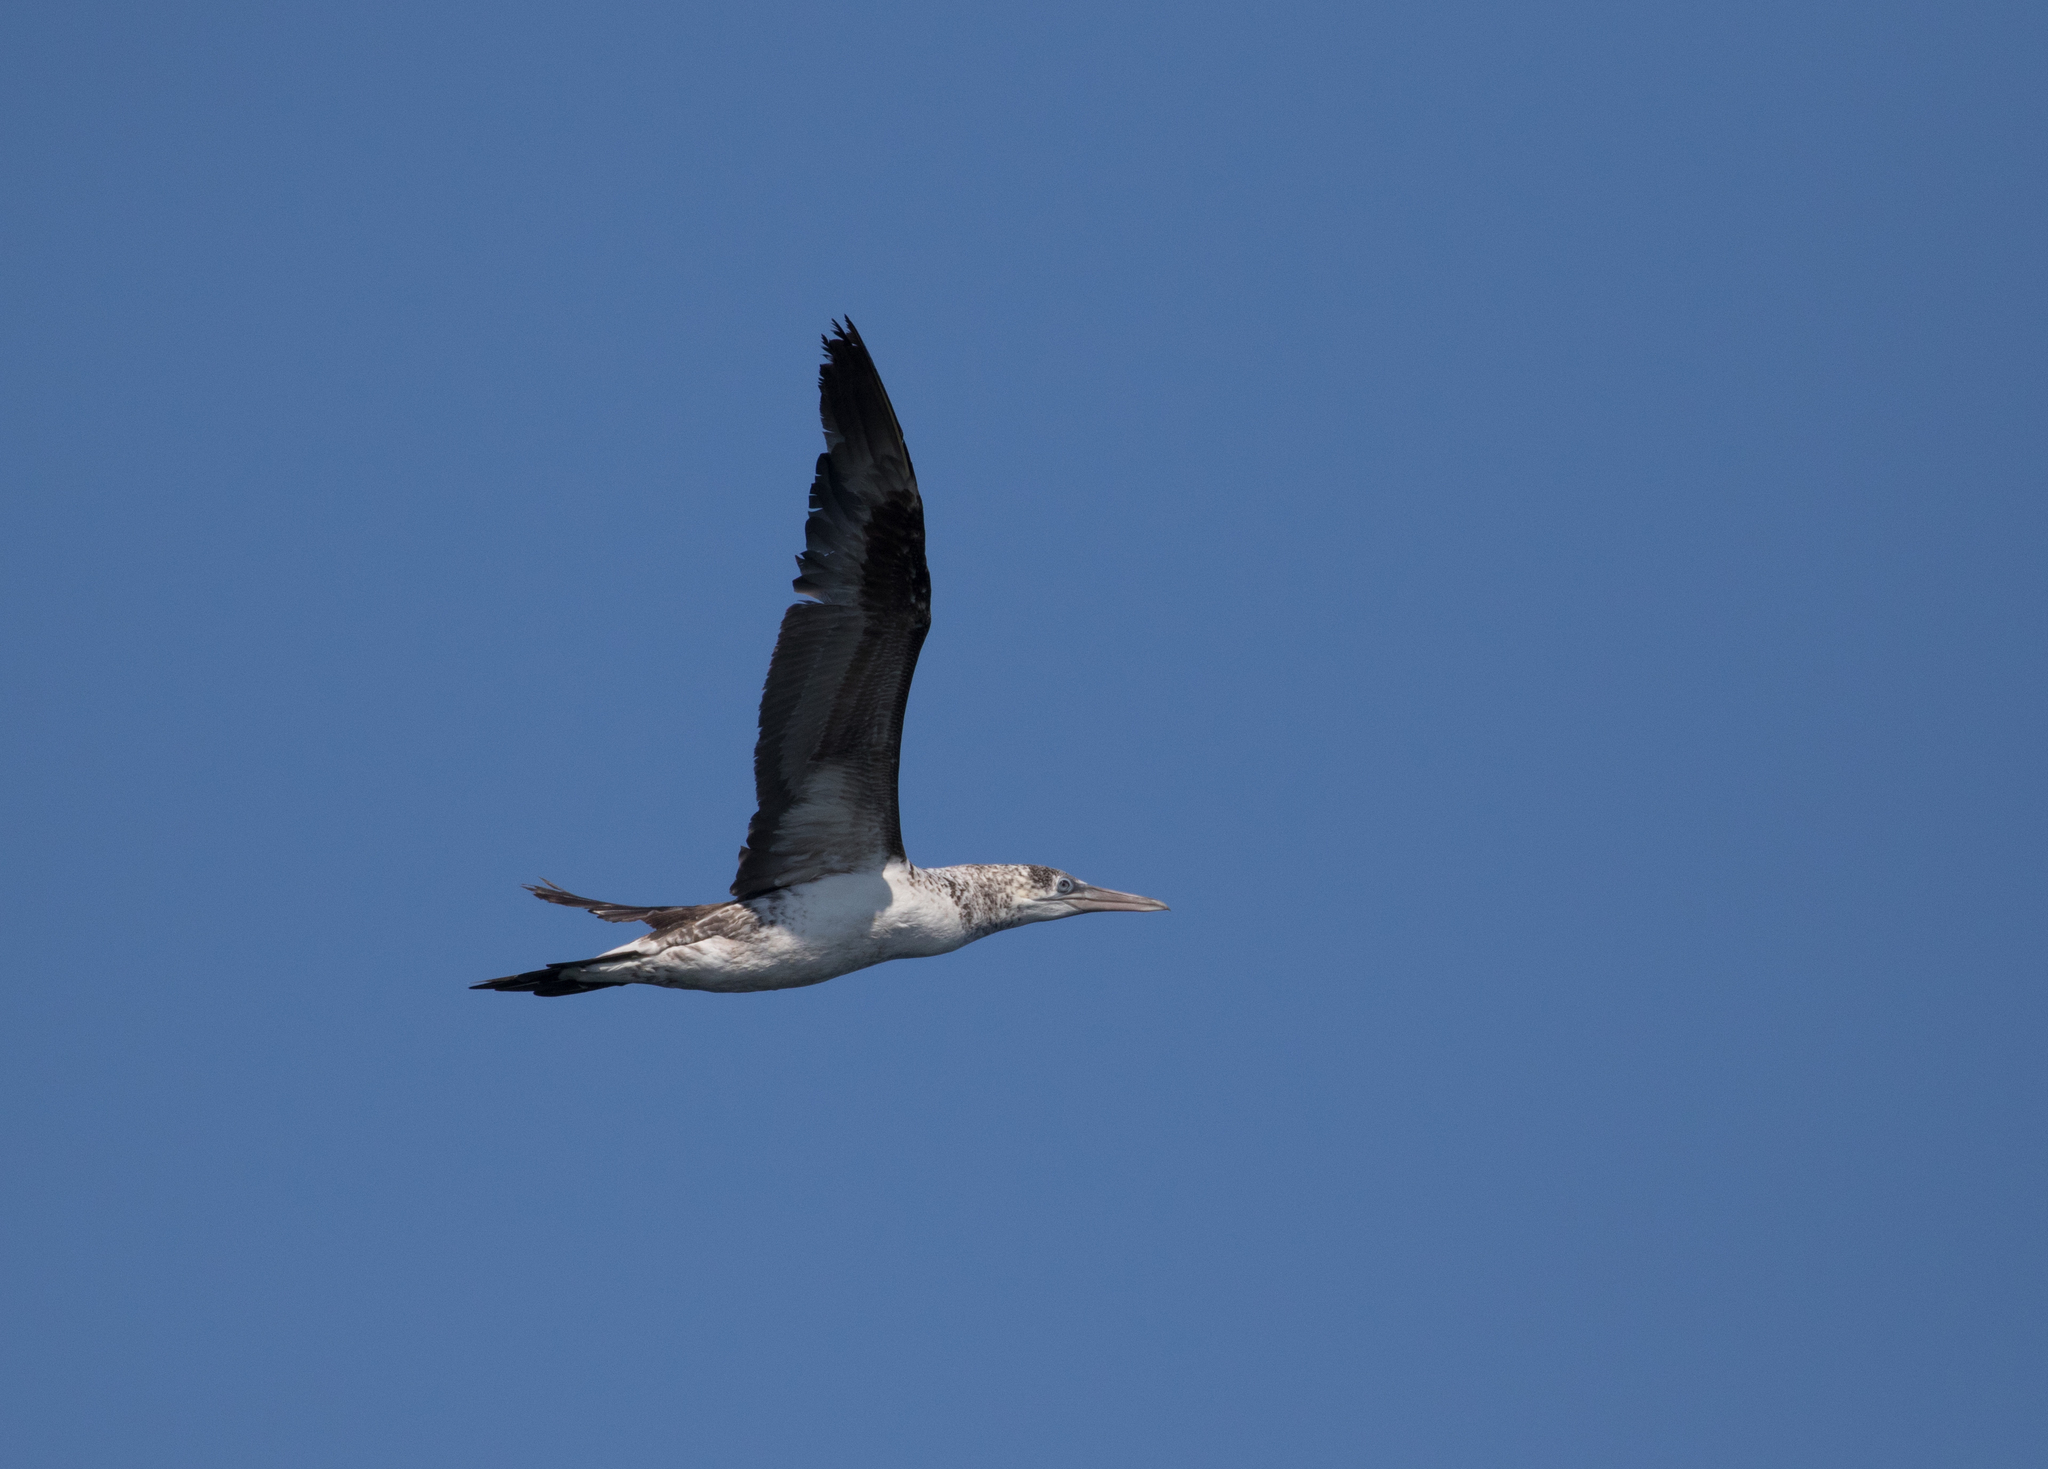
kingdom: Animalia
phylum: Chordata
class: Aves
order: Suliformes
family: Sulidae
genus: Morus
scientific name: Morus bassanus
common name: Northern gannet
